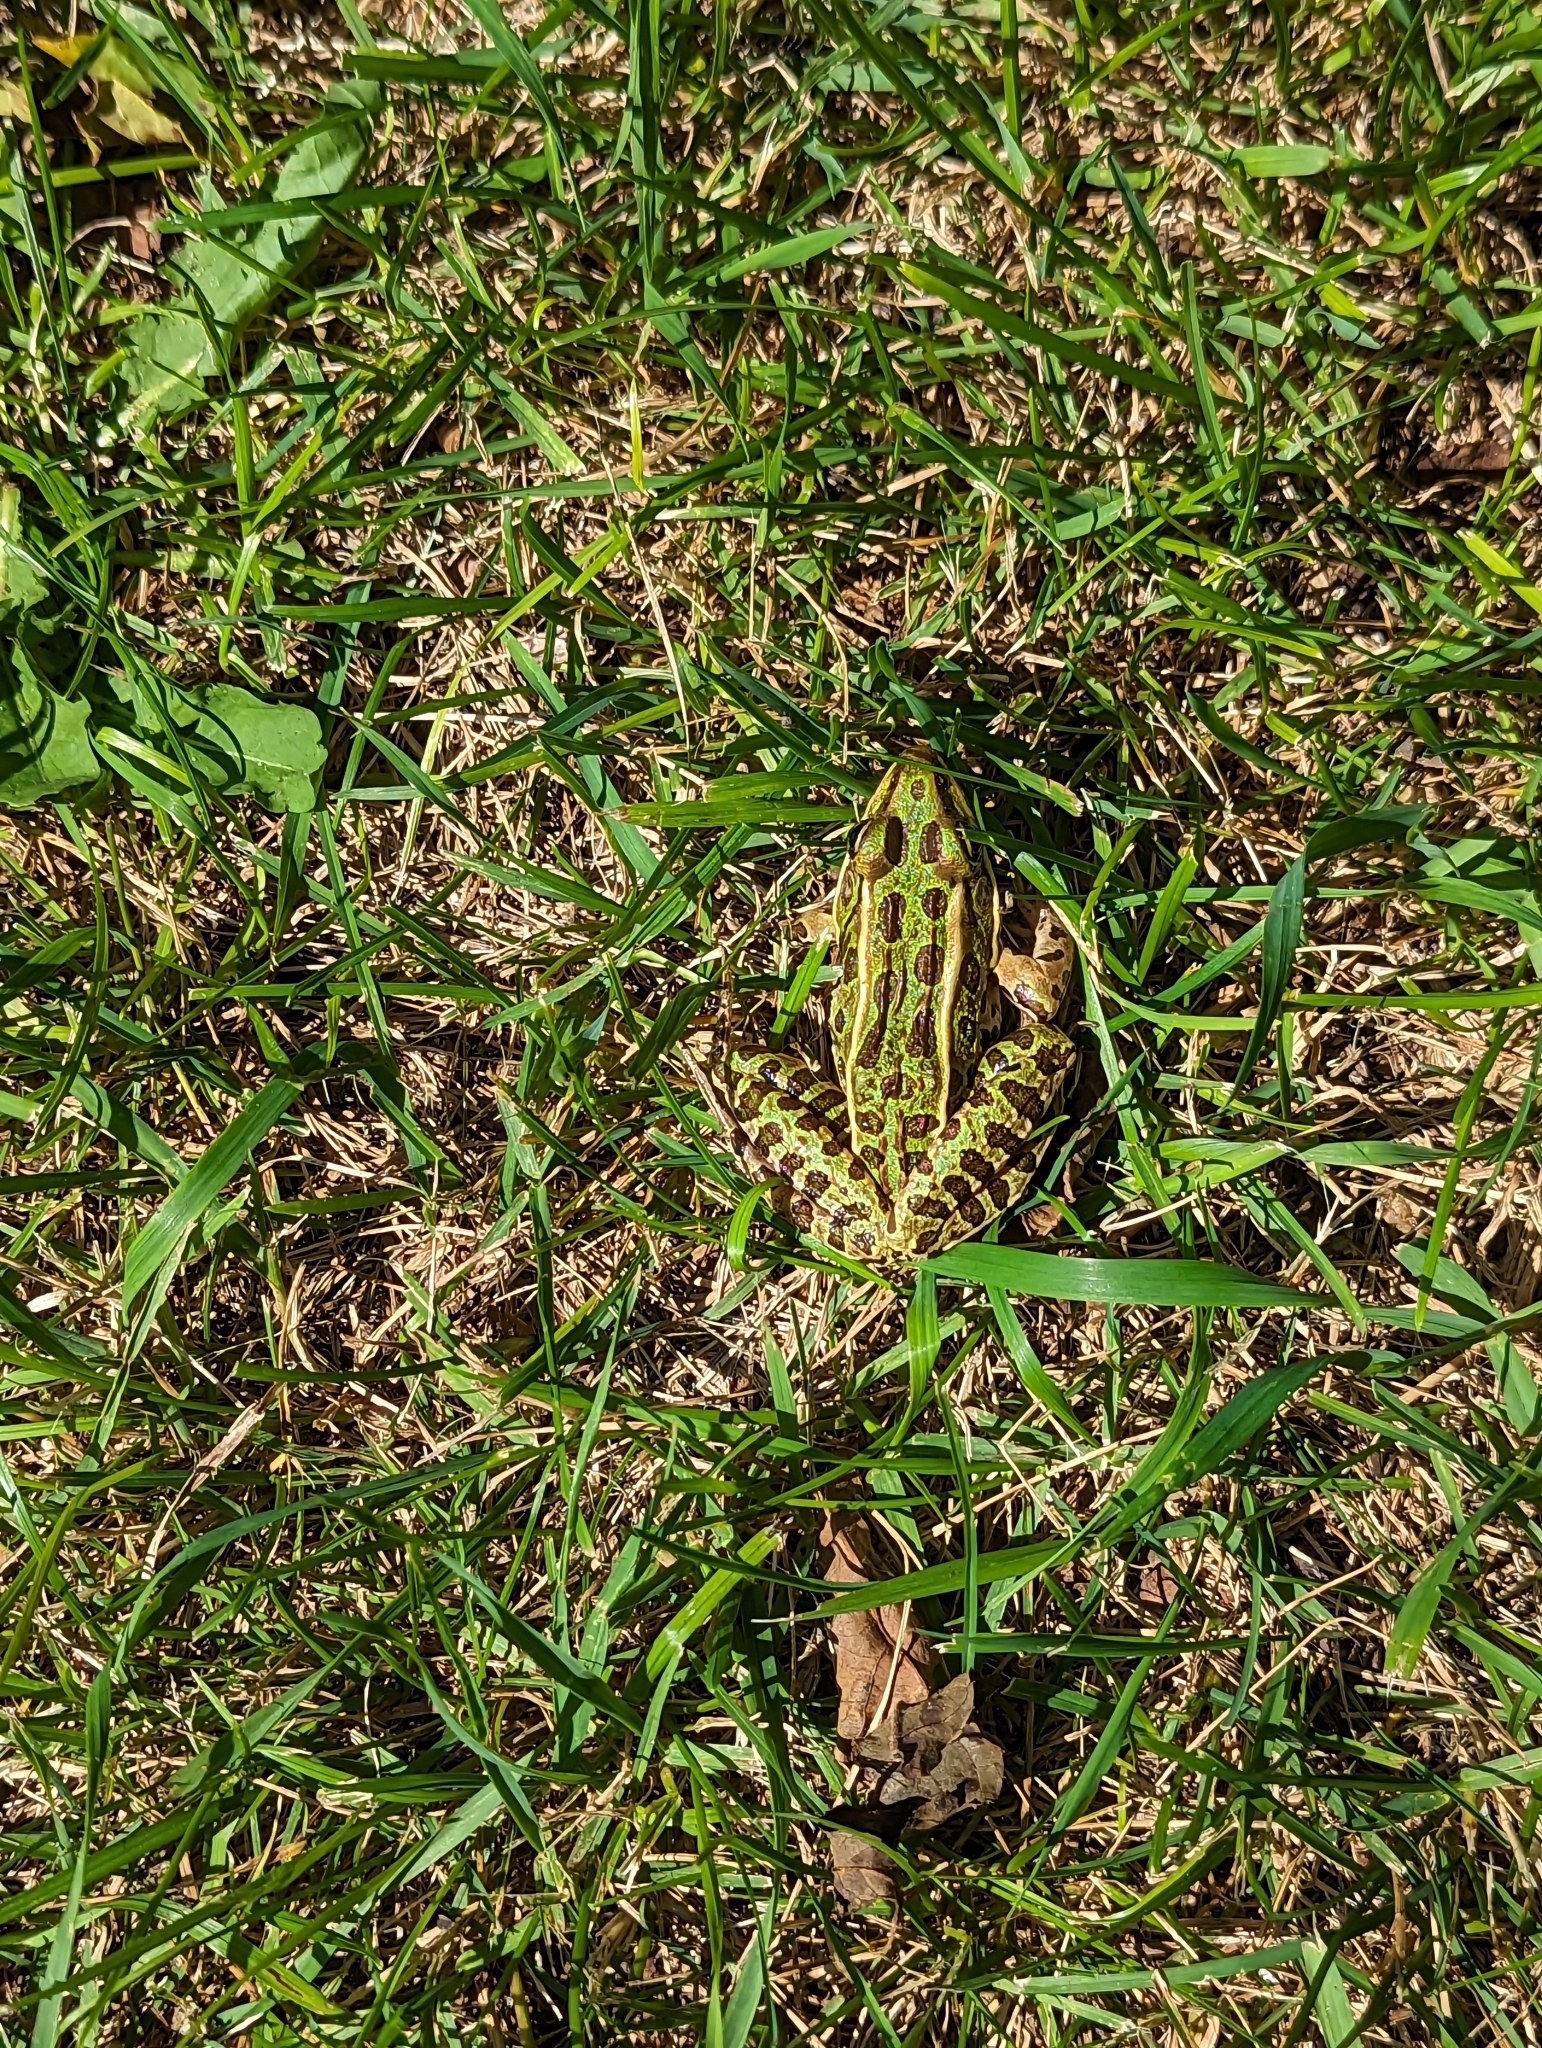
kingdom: Animalia
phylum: Chordata
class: Amphibia
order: Anura
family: Ranidae
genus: Lithobates
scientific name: Lithobates pipiens
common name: Northern leopard frog
